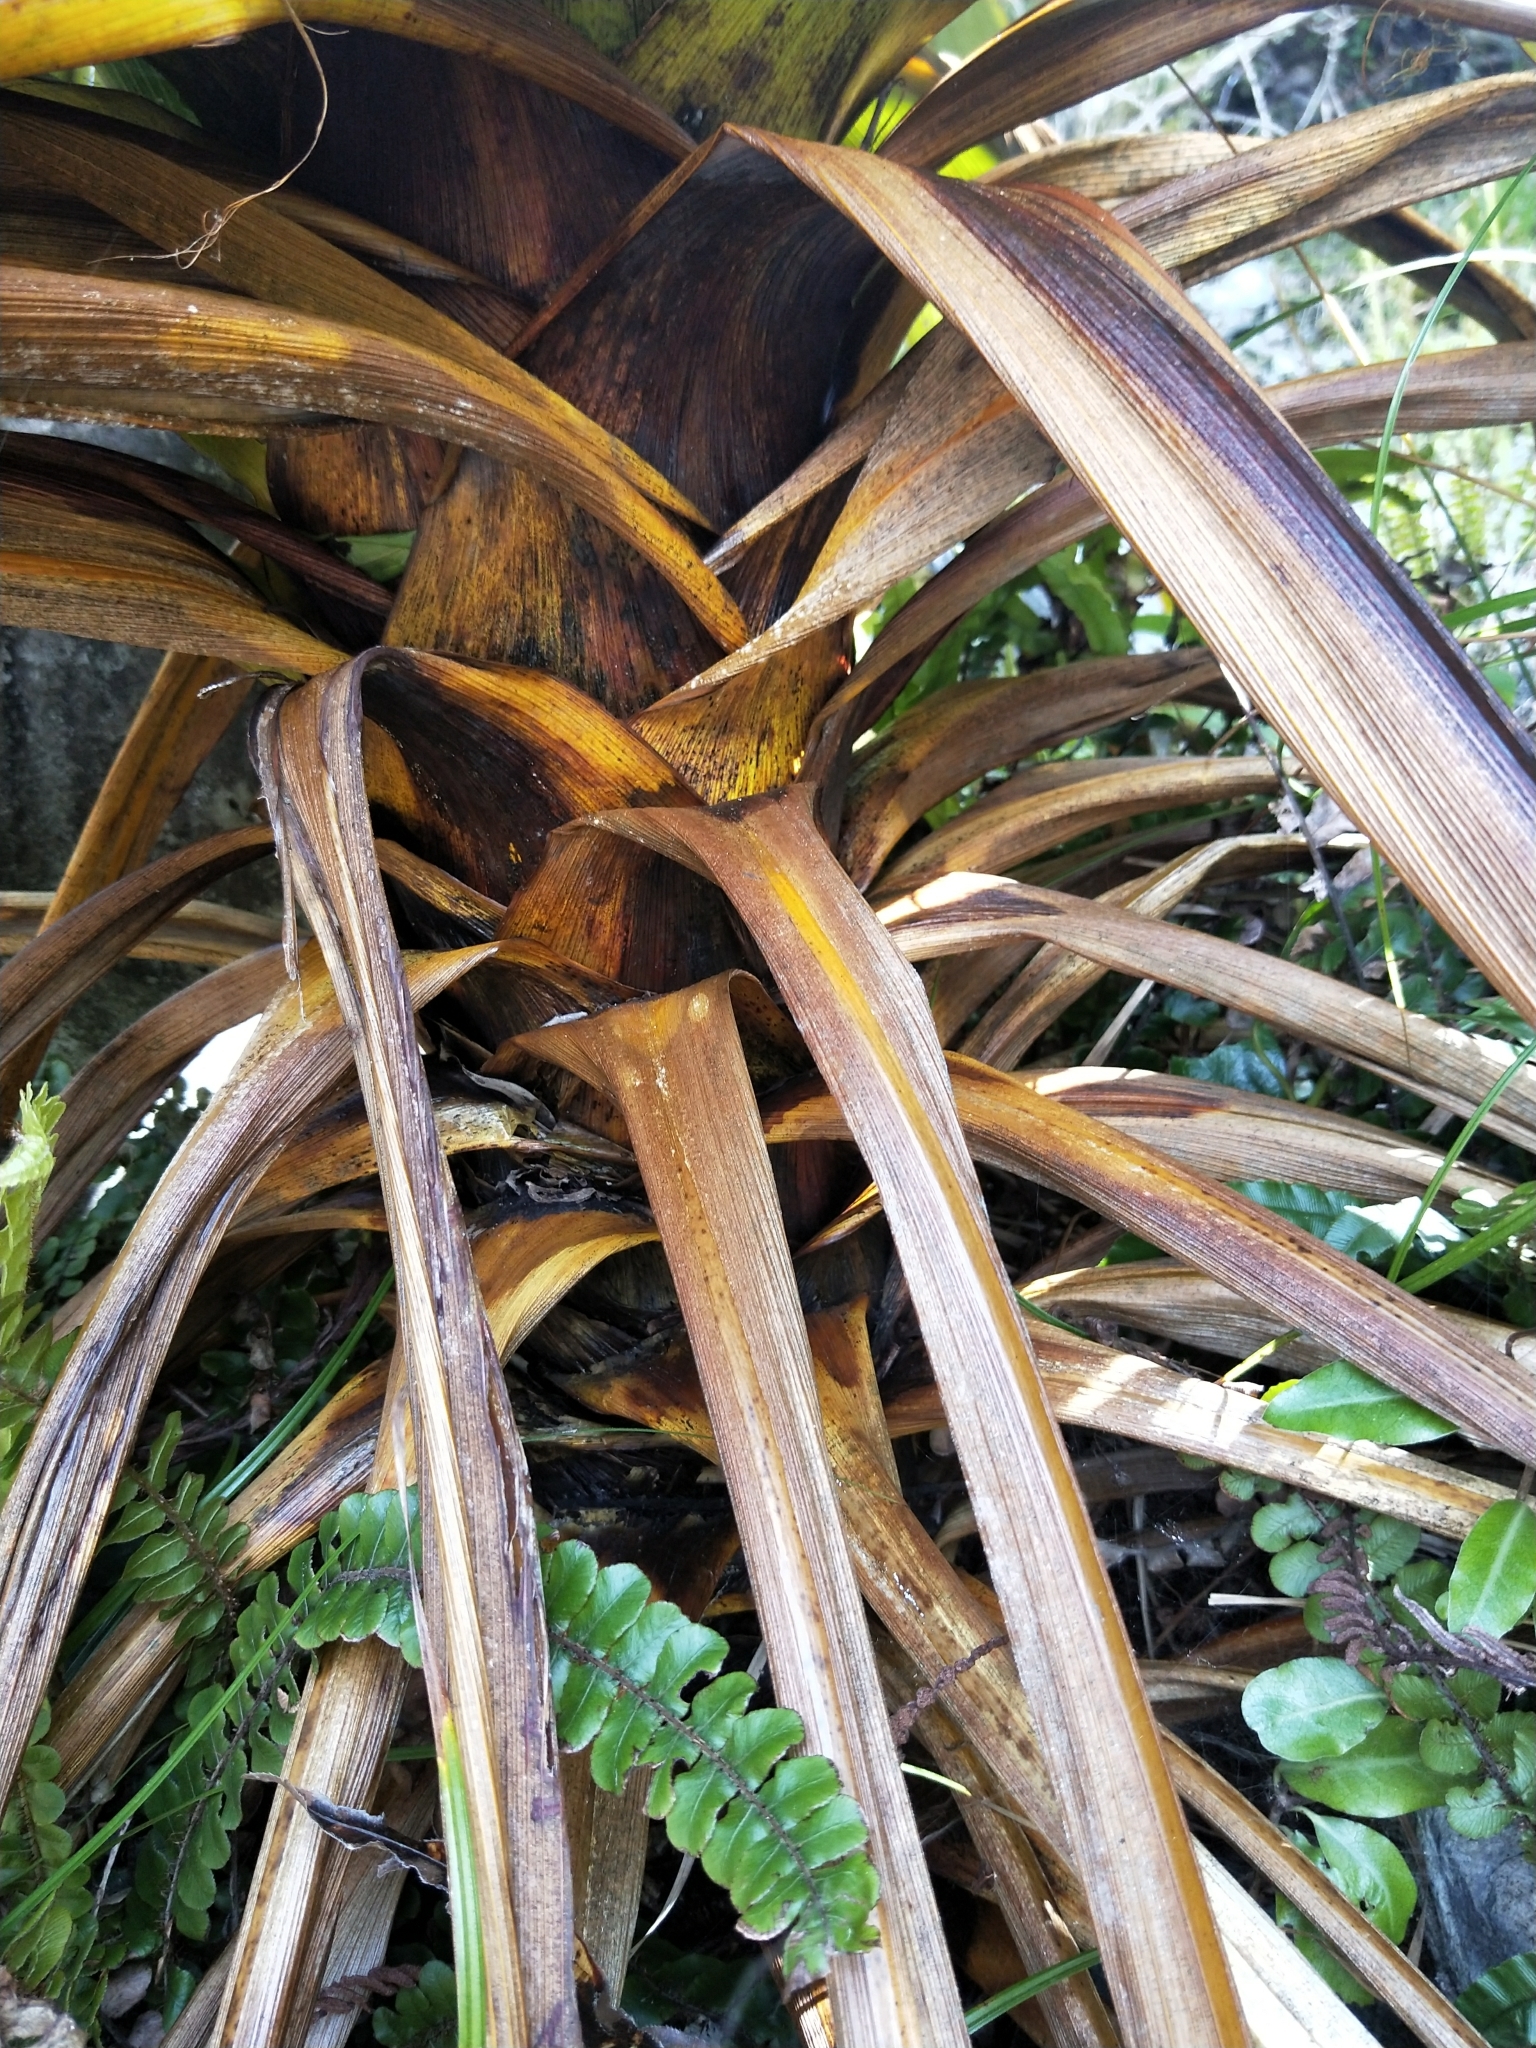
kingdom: Plantae
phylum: Tracheophyta
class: Liliopsida
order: Asparagales
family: Asparagaceae
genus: Cordyline
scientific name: Cordyline indivisa
